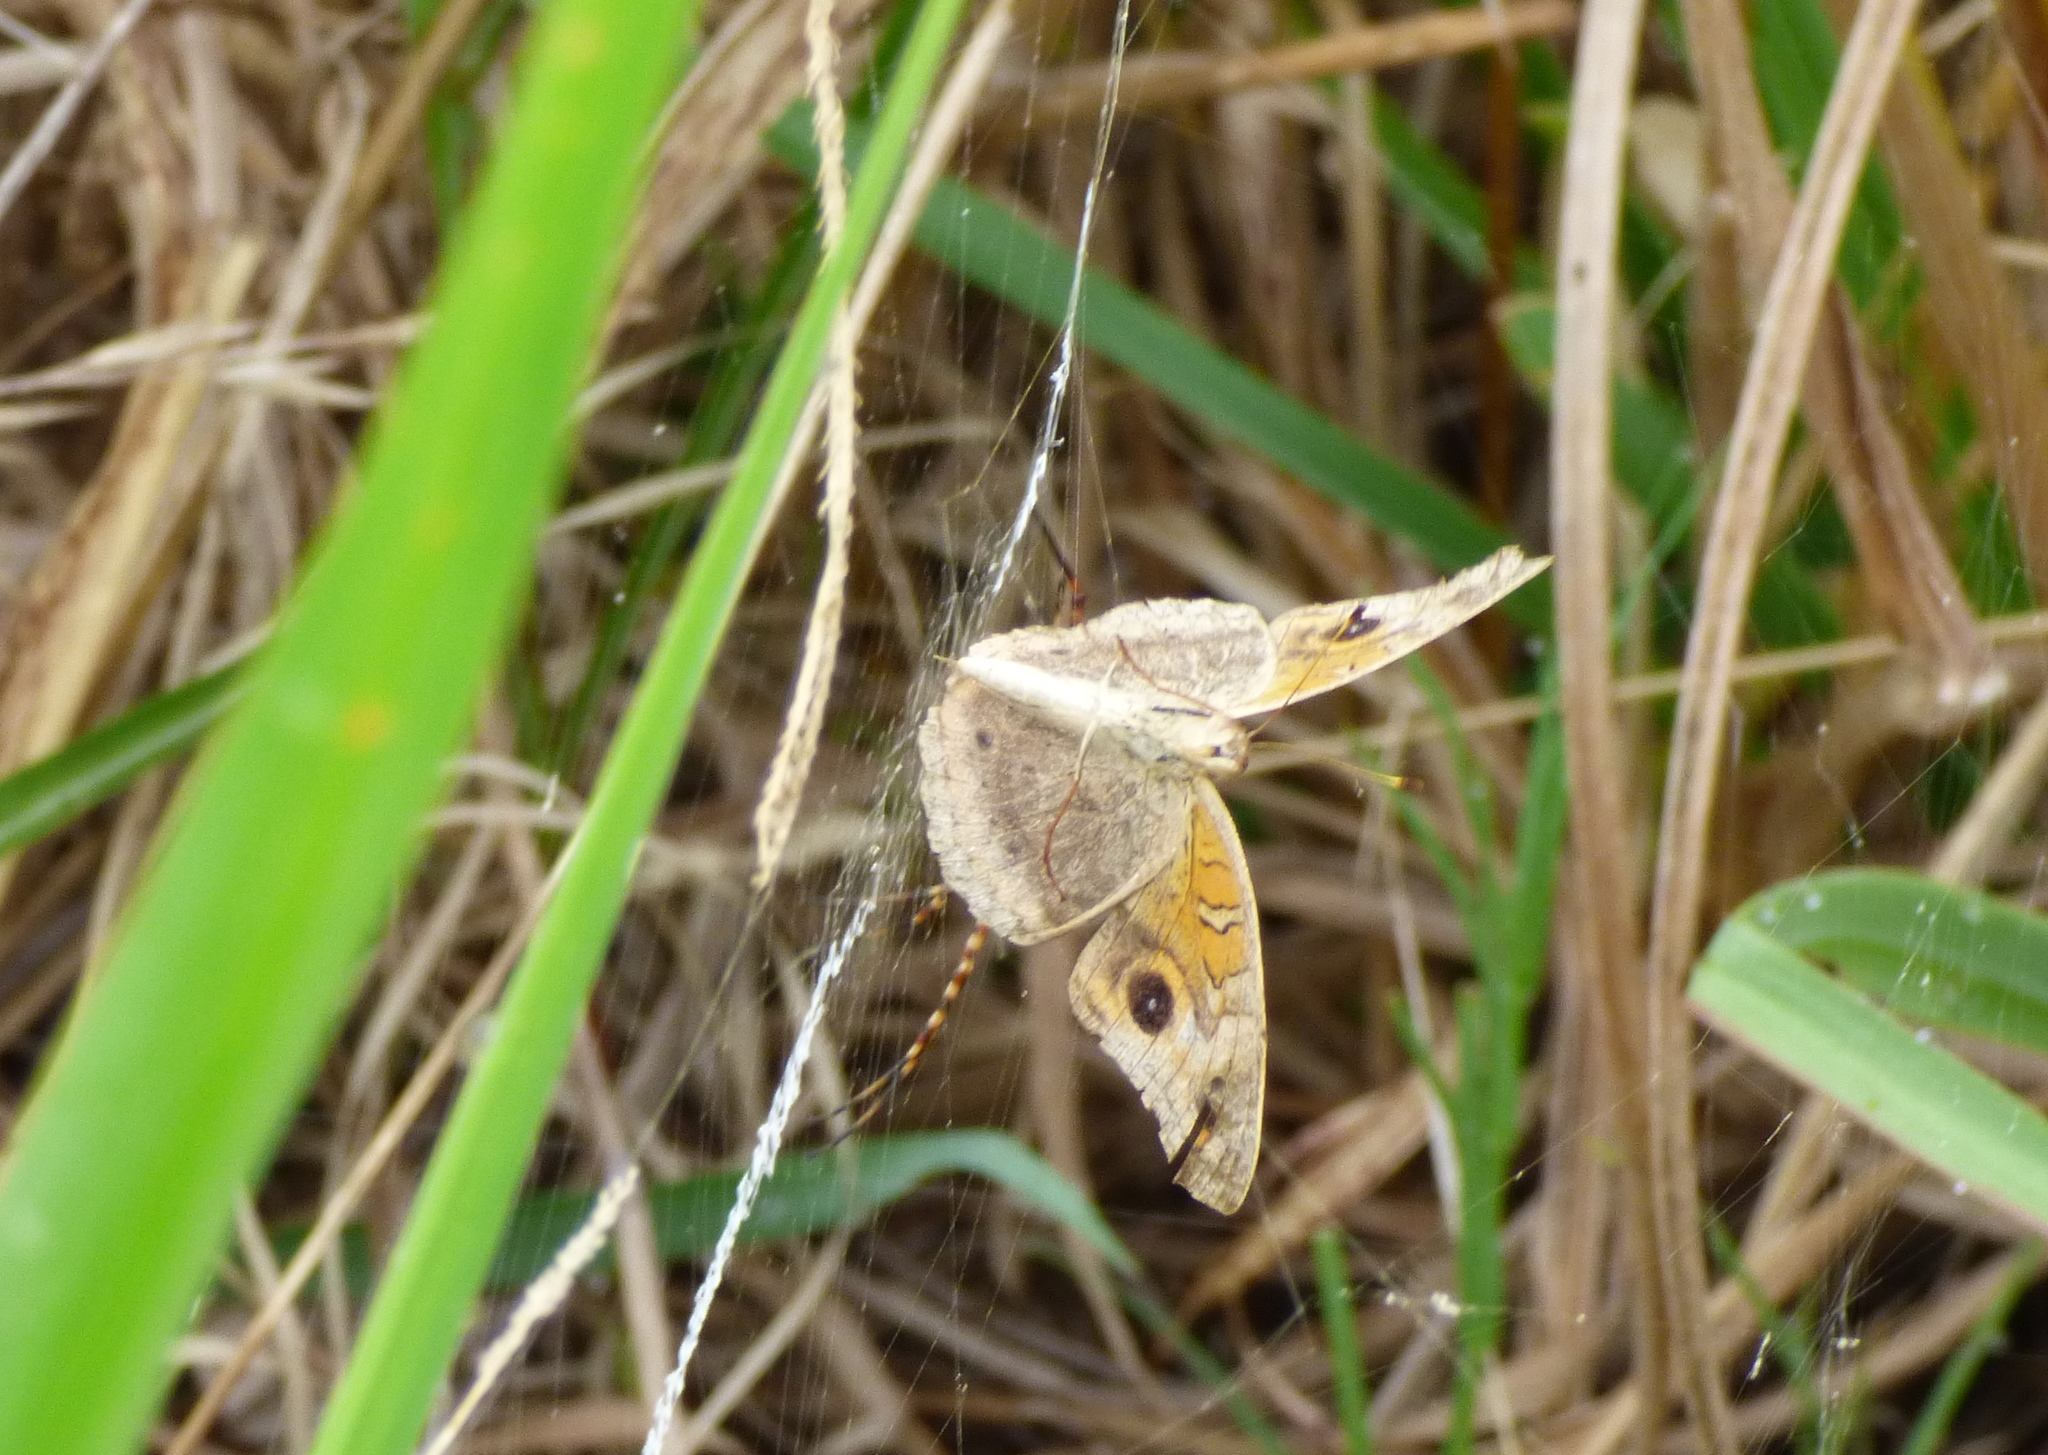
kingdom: Animalia
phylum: Arthropoda
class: Insecta
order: Lepidoptera
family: Nymphalidae
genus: Junonia
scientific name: Junonia lavinia
